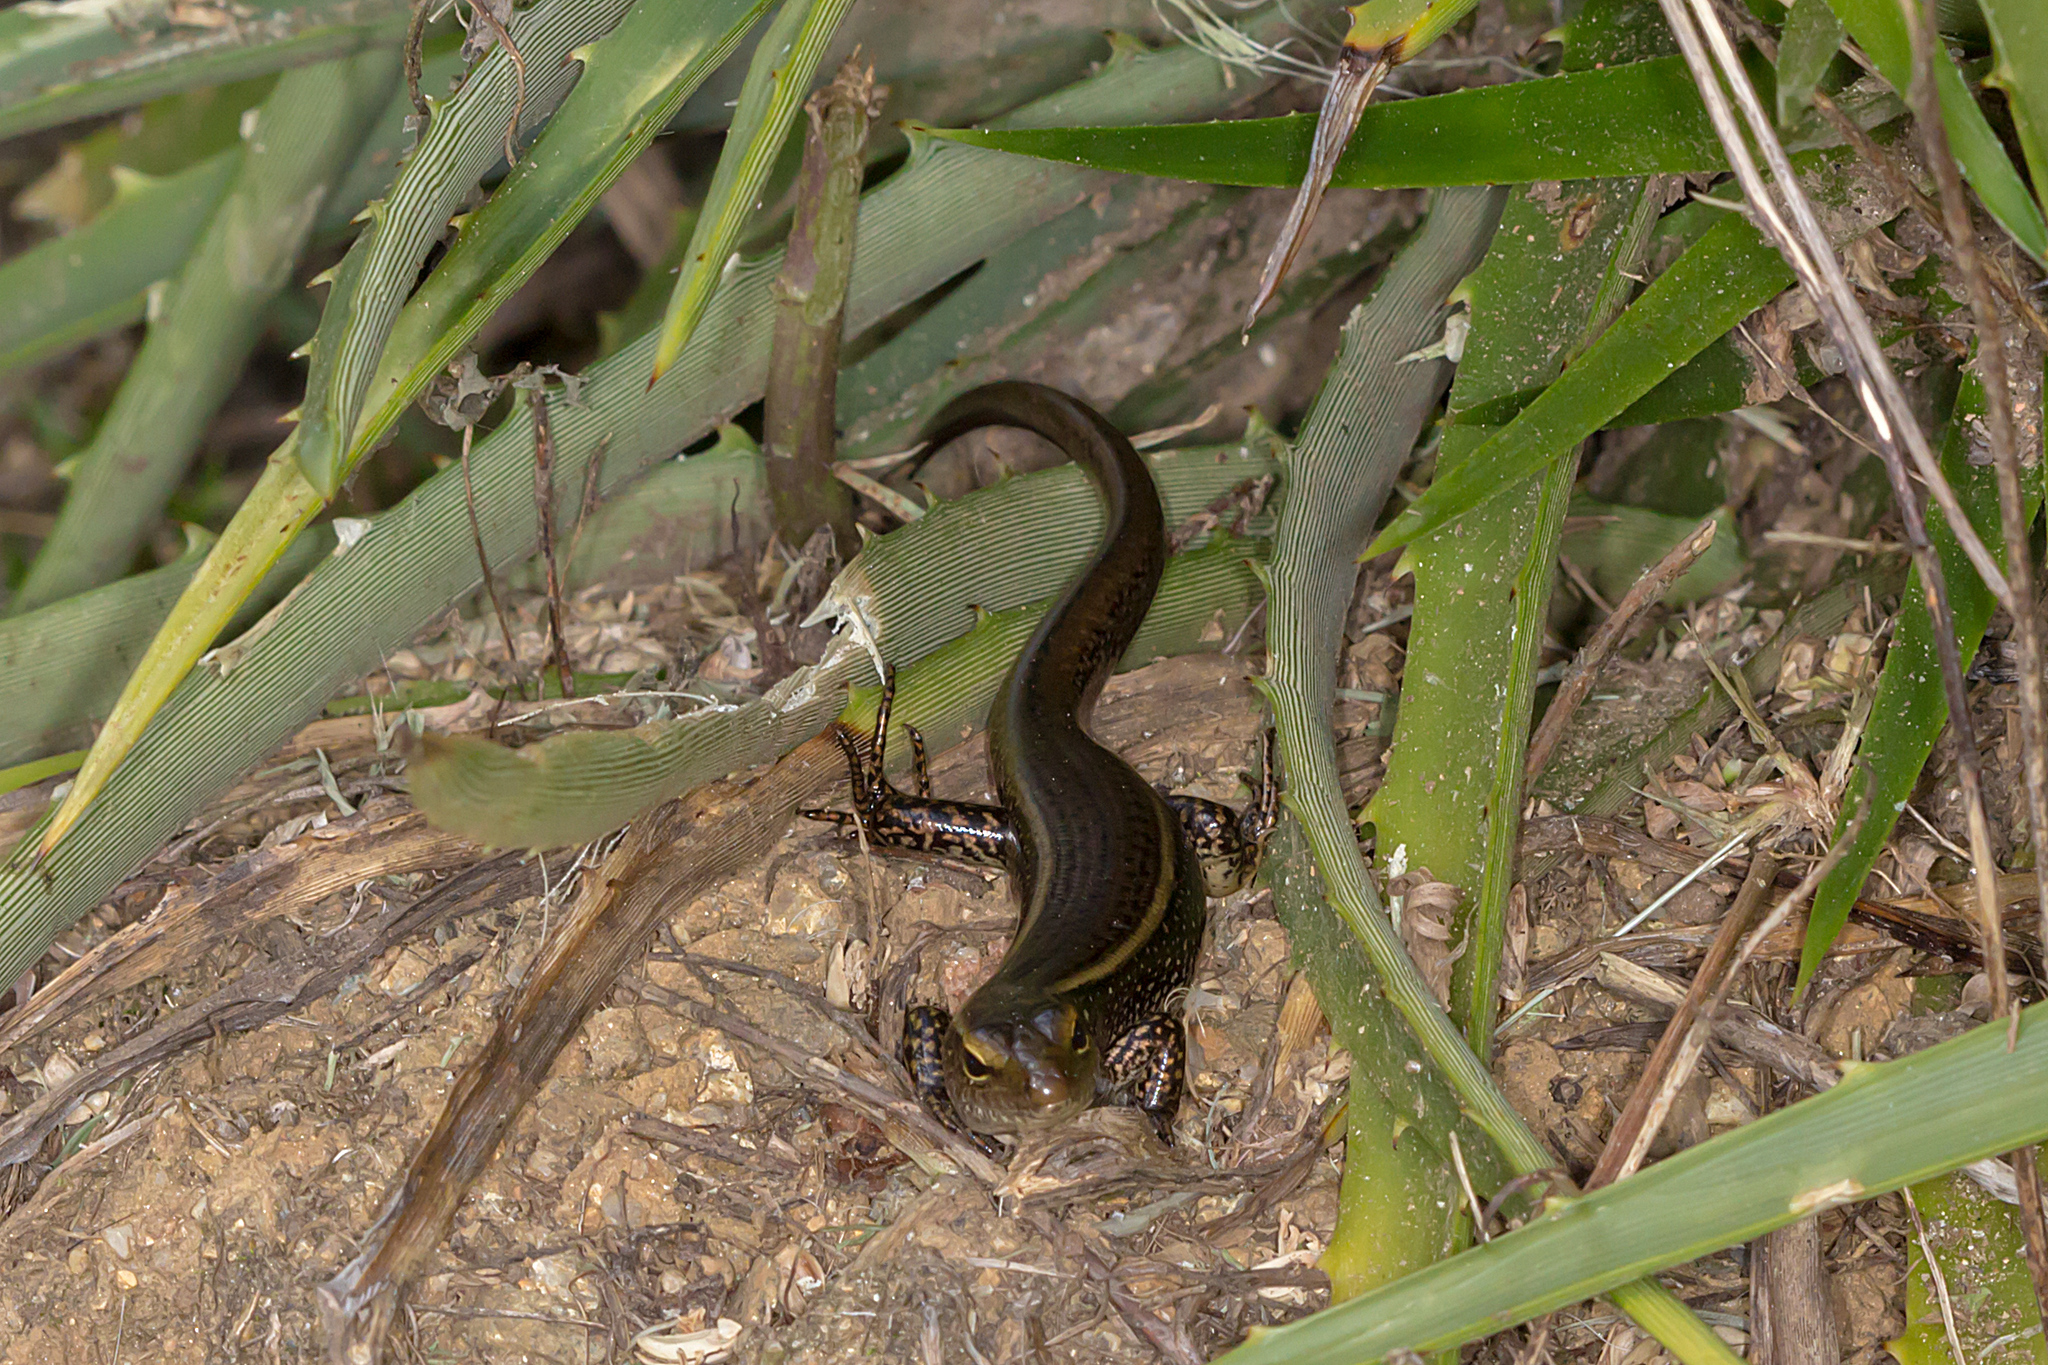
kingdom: Animalia
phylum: Chordata
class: Squamata
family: Scincidae
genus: Eulamprus
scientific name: Eulamprus quoyii
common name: Eastern water skink
